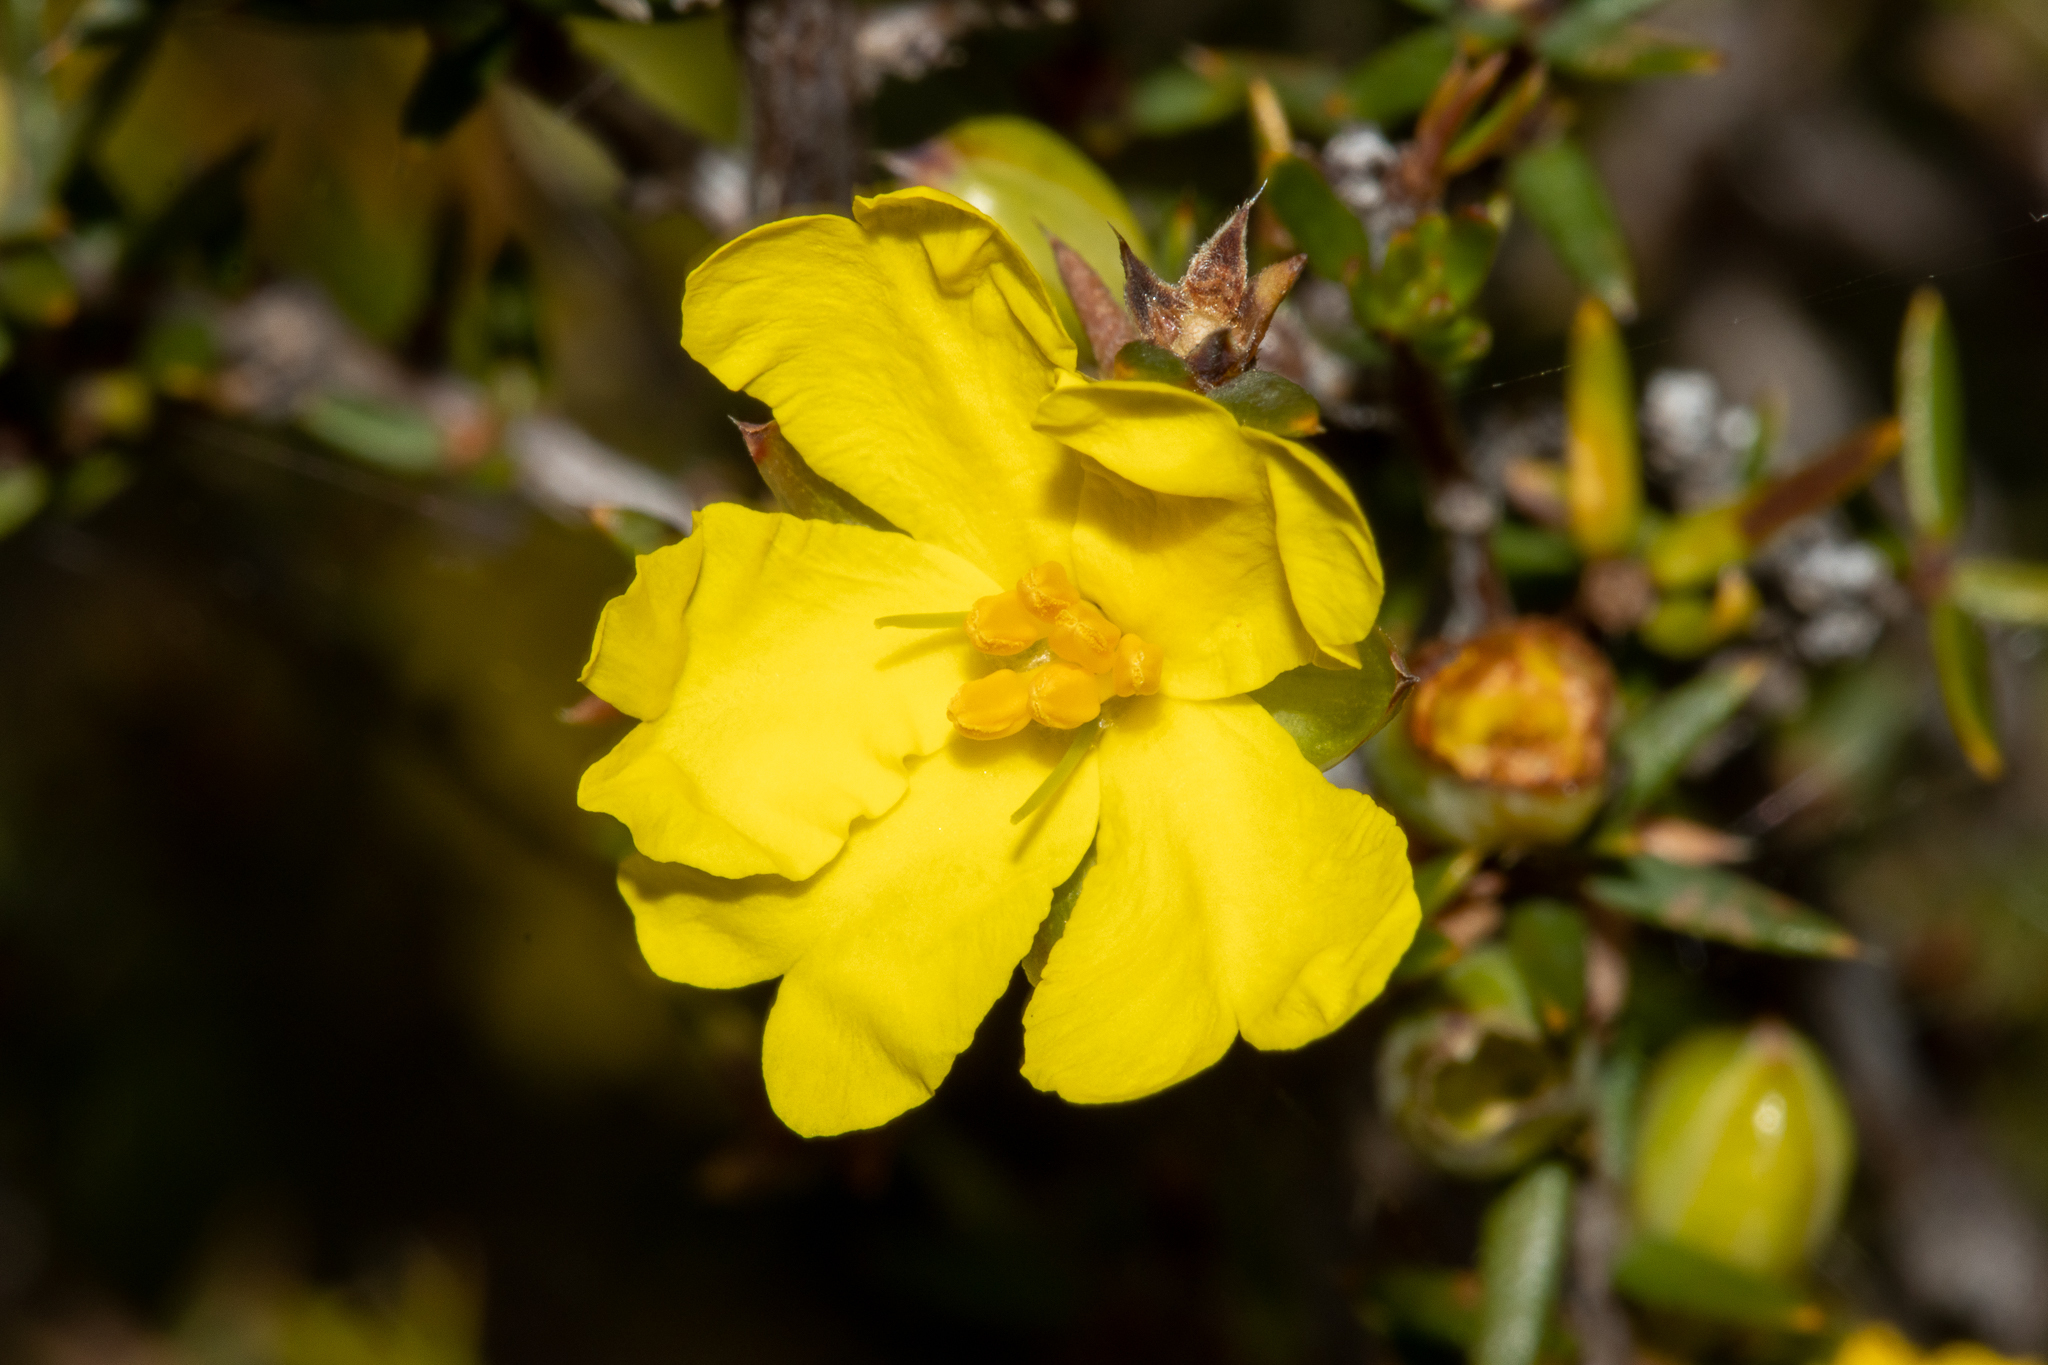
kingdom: Plantae
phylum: Tracheophyta
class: Magnoliopsida
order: Dilleniales
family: Dilleniaceae
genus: Hibbertia
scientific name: Hibbertia exutiacies
